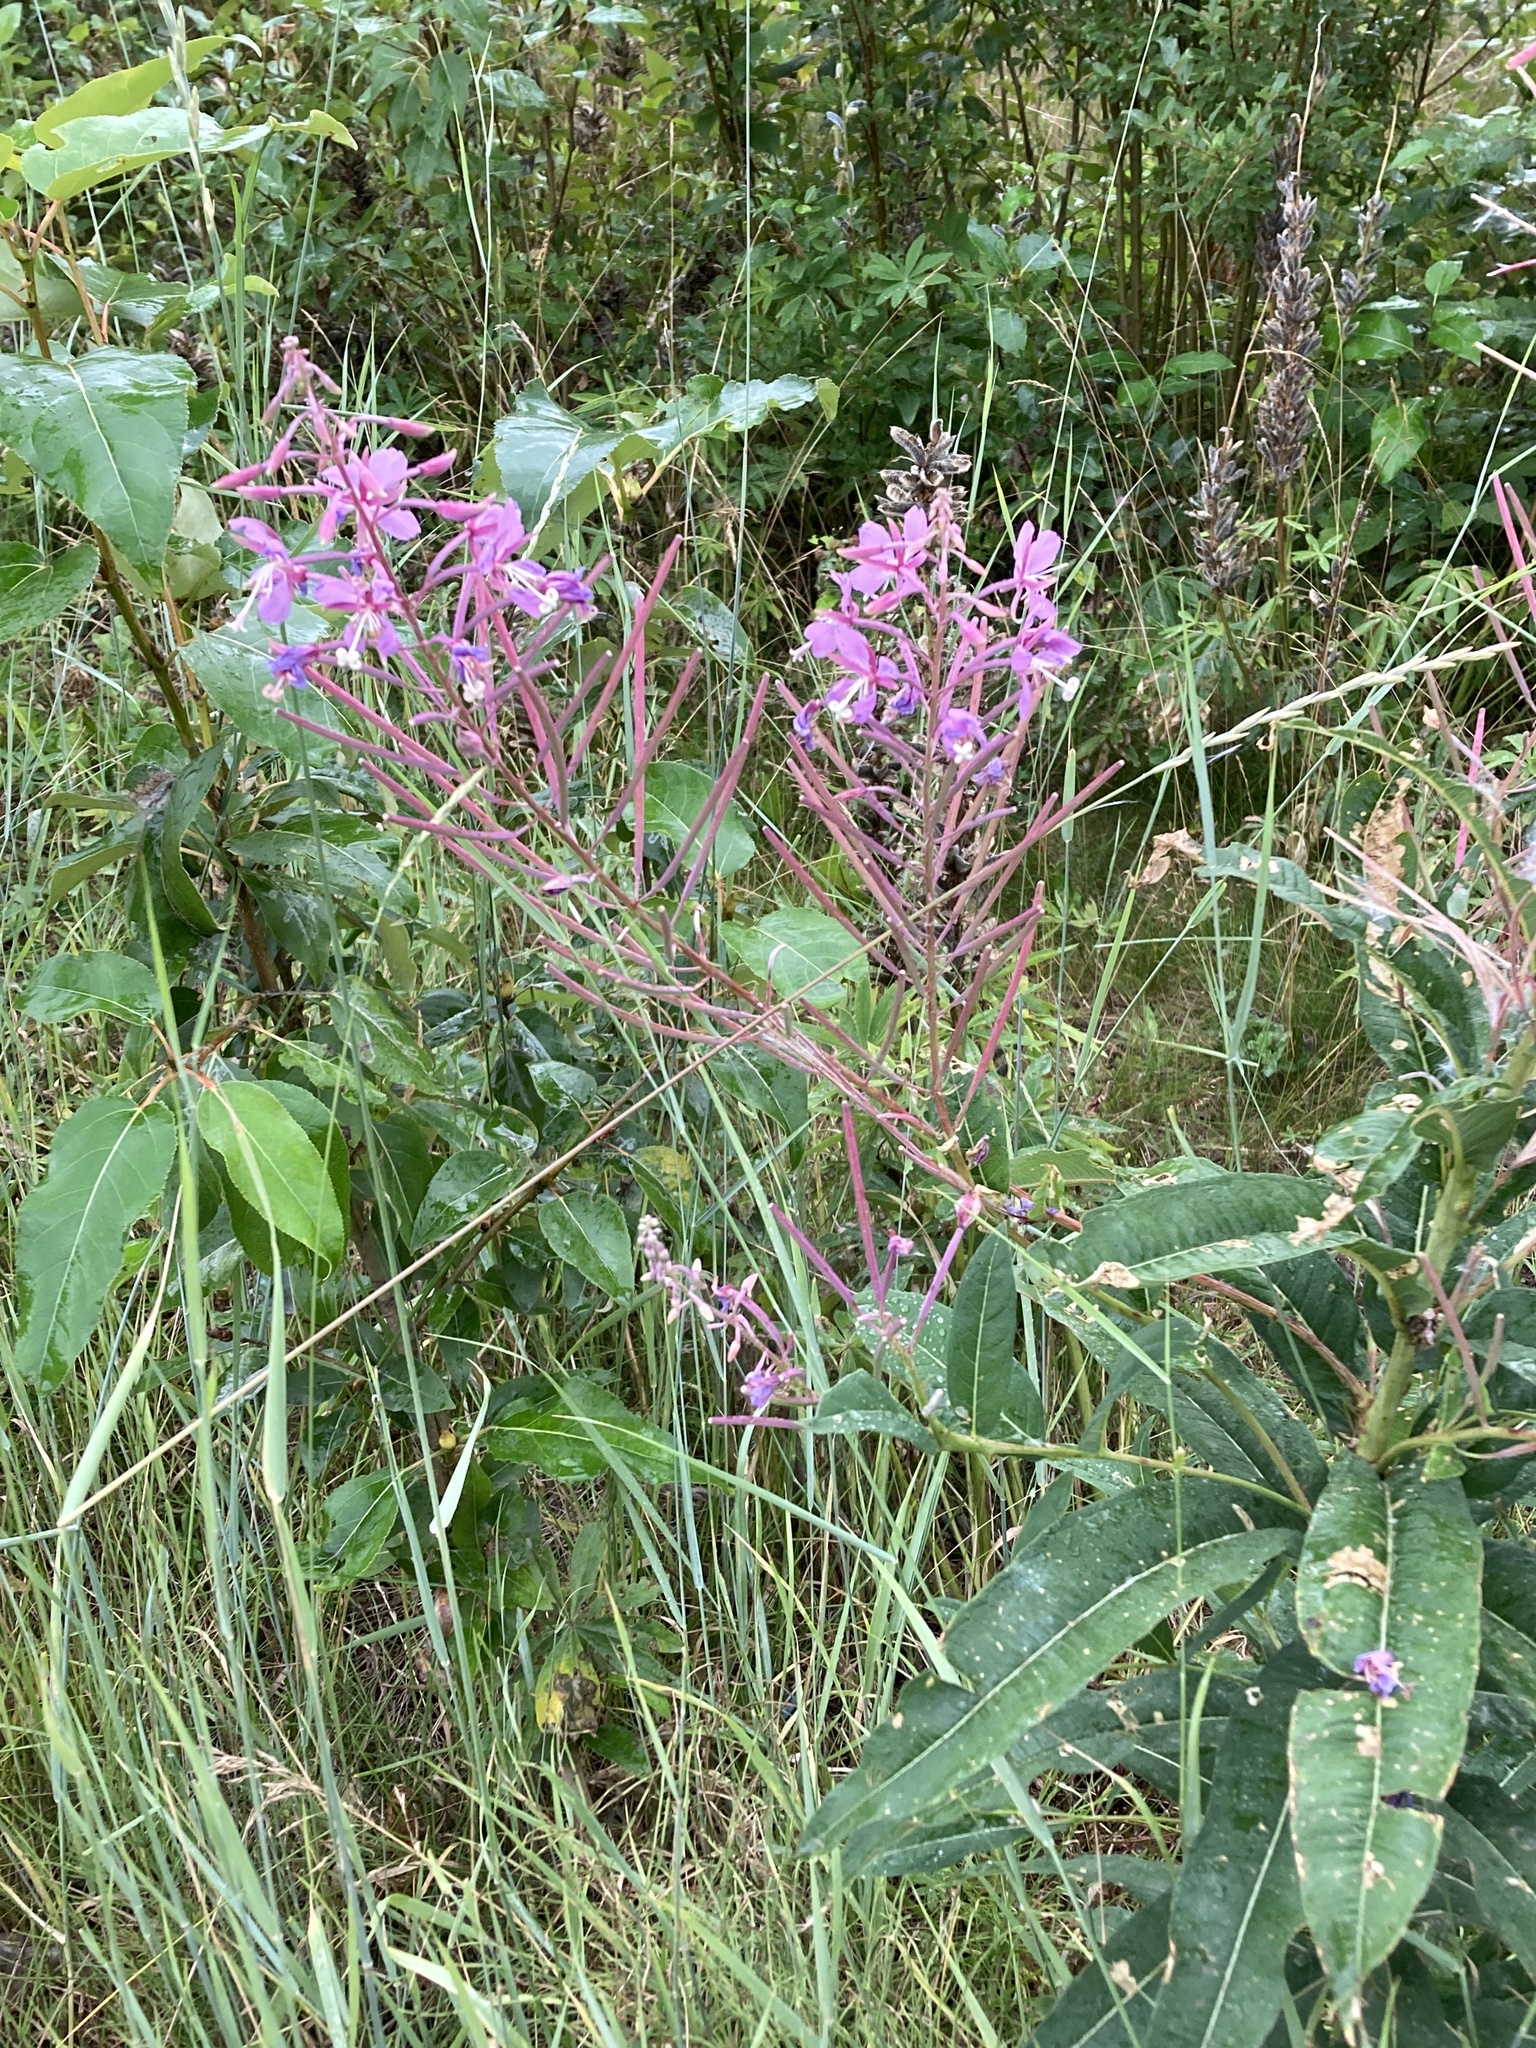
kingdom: Plantae
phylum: Tracheophyta
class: Magnoliopsida
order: Myrtales
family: Onagraceae
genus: Chamaenerion
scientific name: Chamaenerion angustifolium
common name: Fireweed
